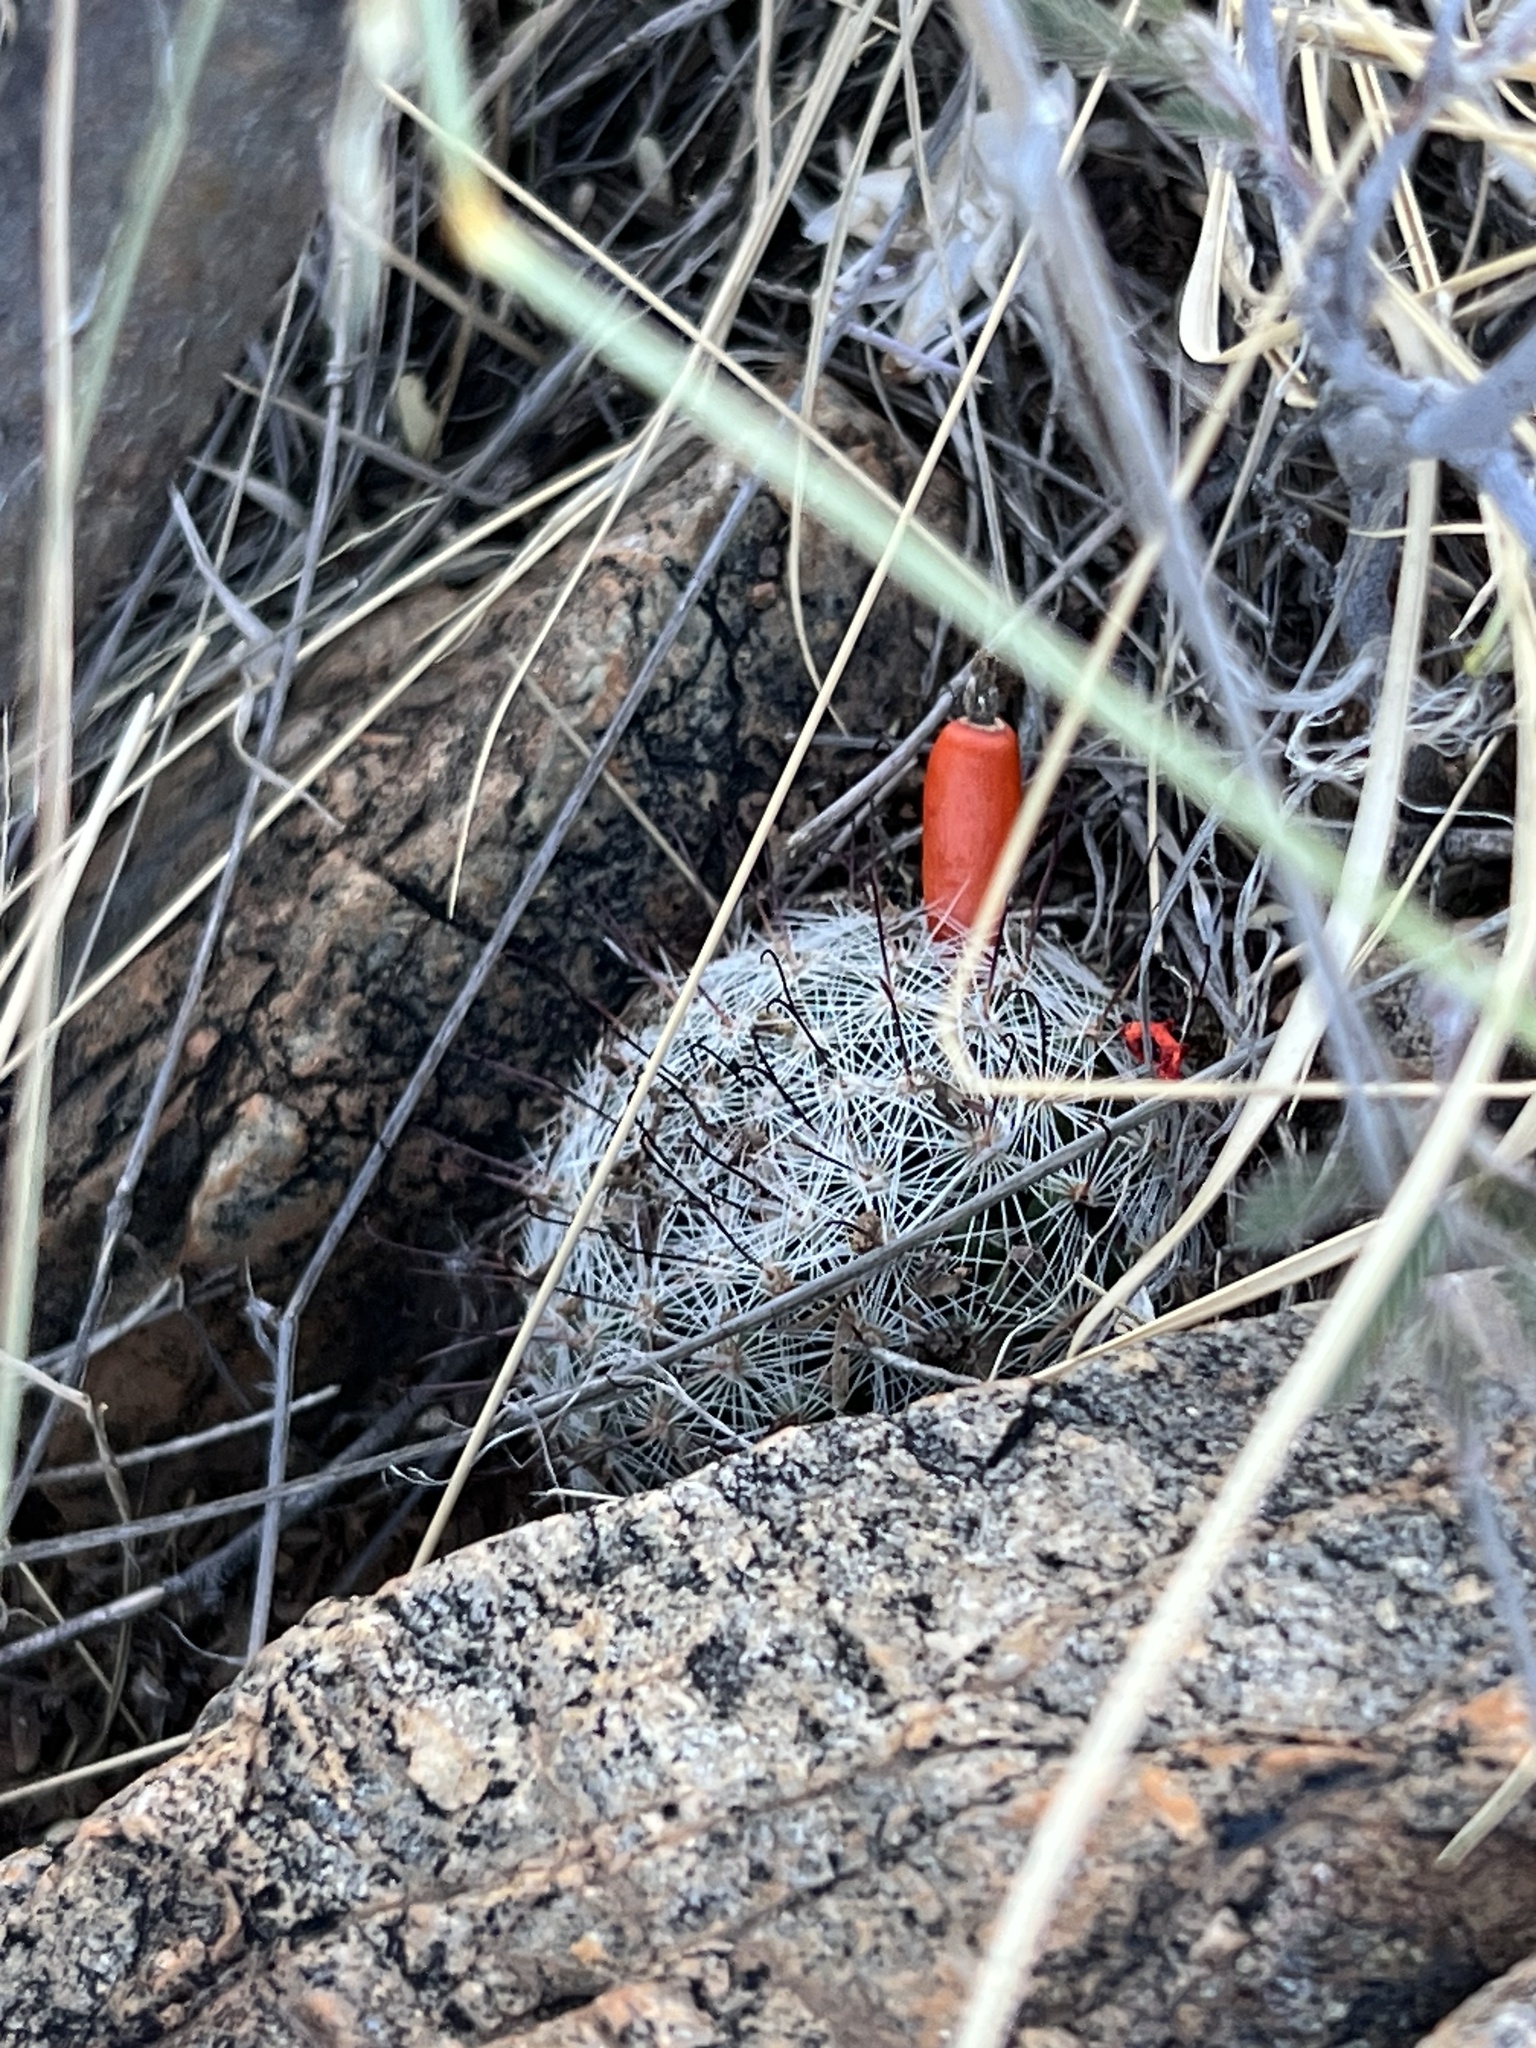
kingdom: Plantae
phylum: Tracheophyta
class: Magnoliopsida
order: Caryophyllales
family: Cactaceae
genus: Cochemiea
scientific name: Cochemiea grahamii
